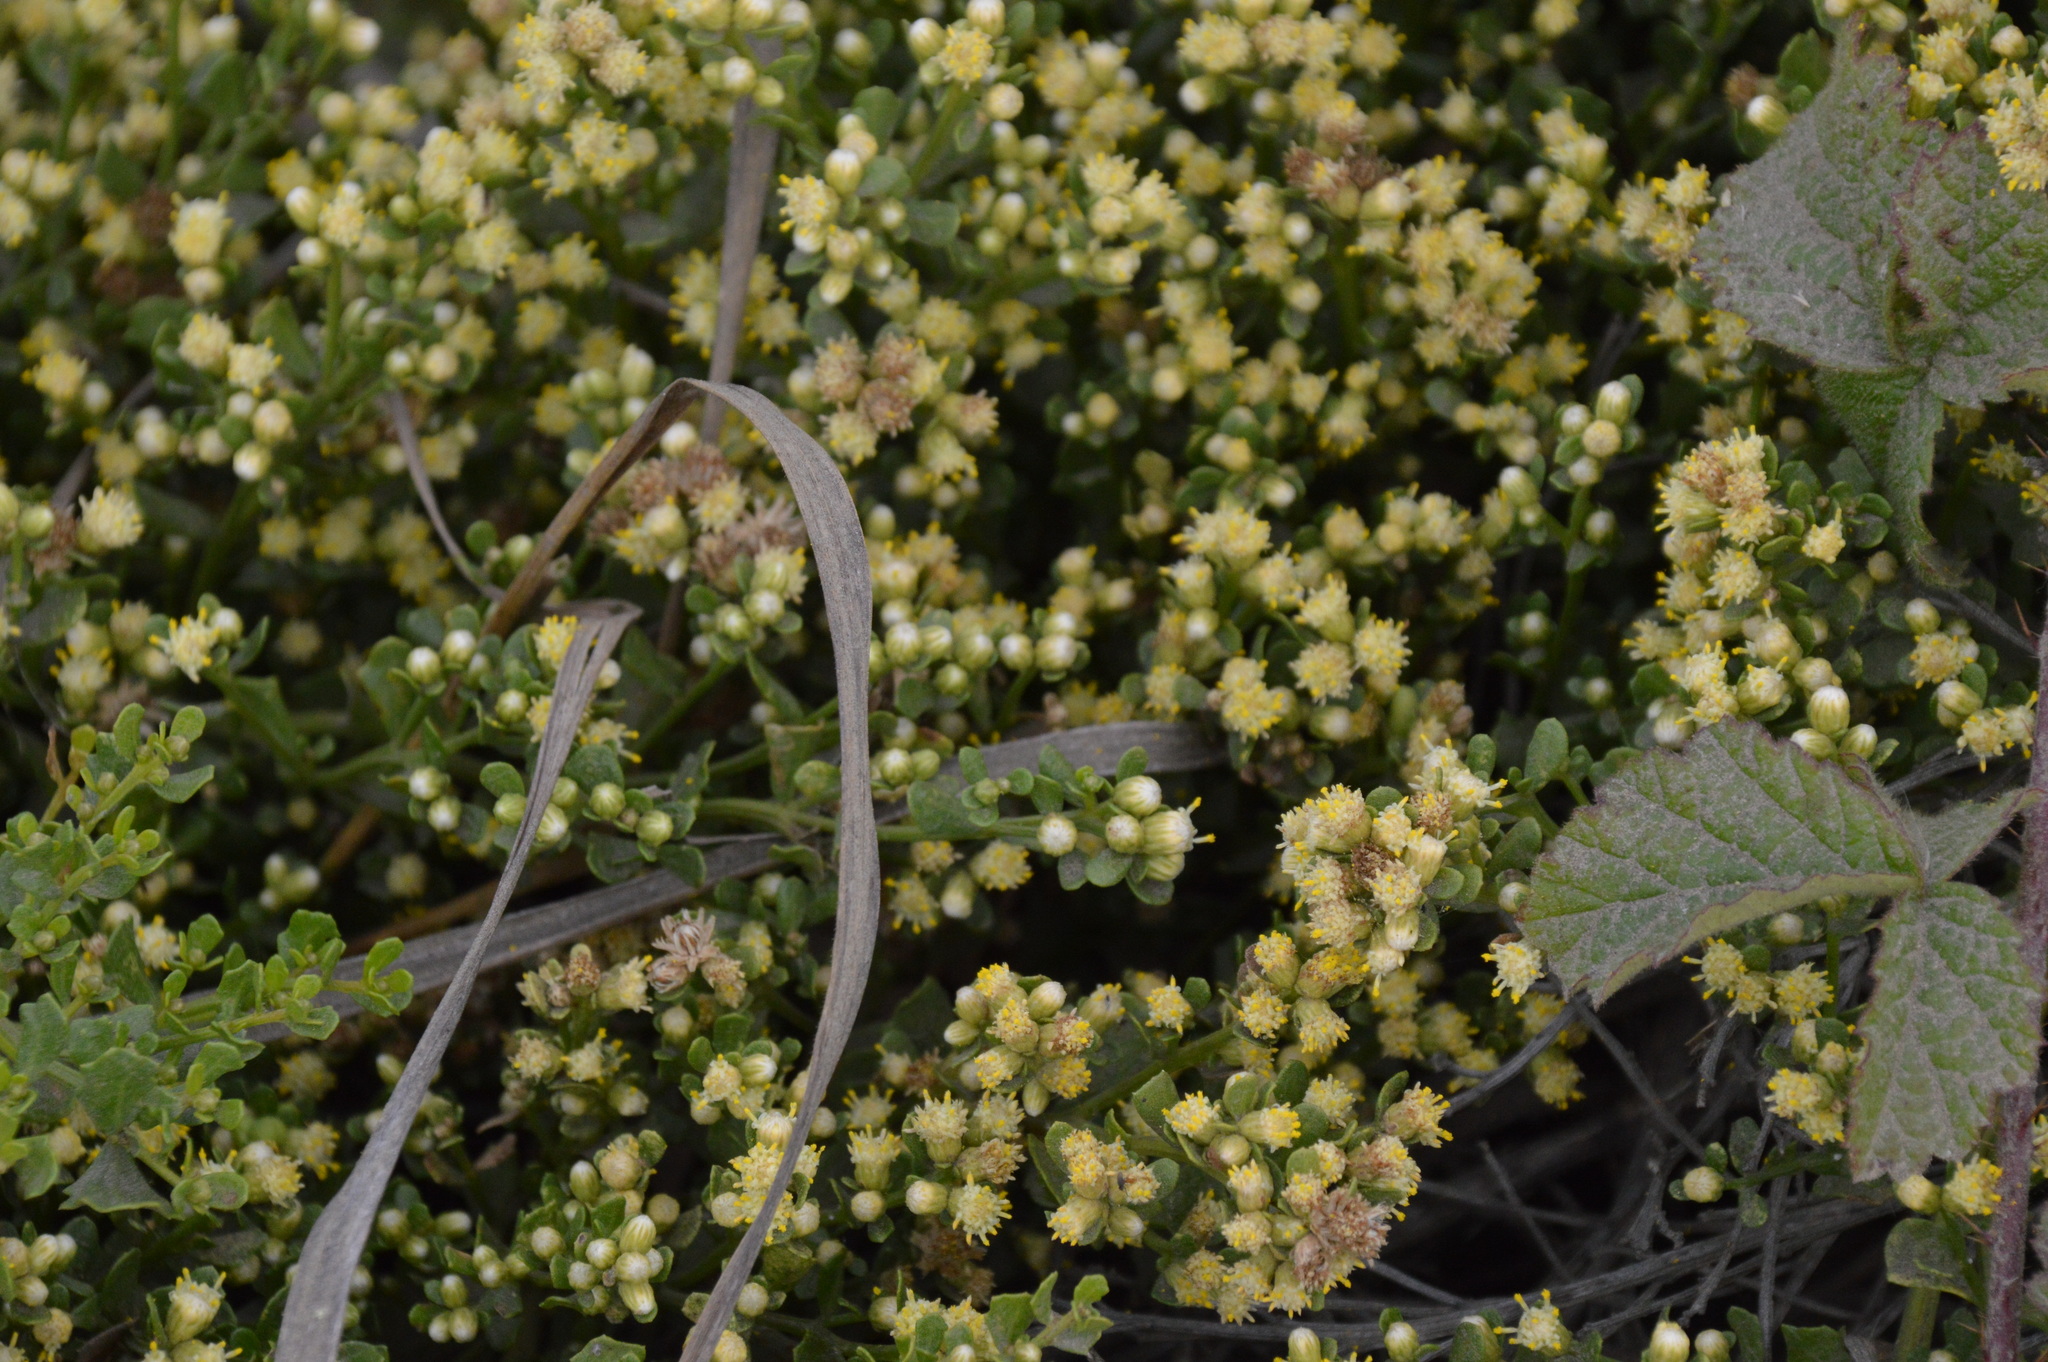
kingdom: Plantae
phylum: Tracheophyta
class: Magnoliopsida
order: Asterales
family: Asteraceae
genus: Baccharis
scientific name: Baccharis pilularis
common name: Coyotebrush
